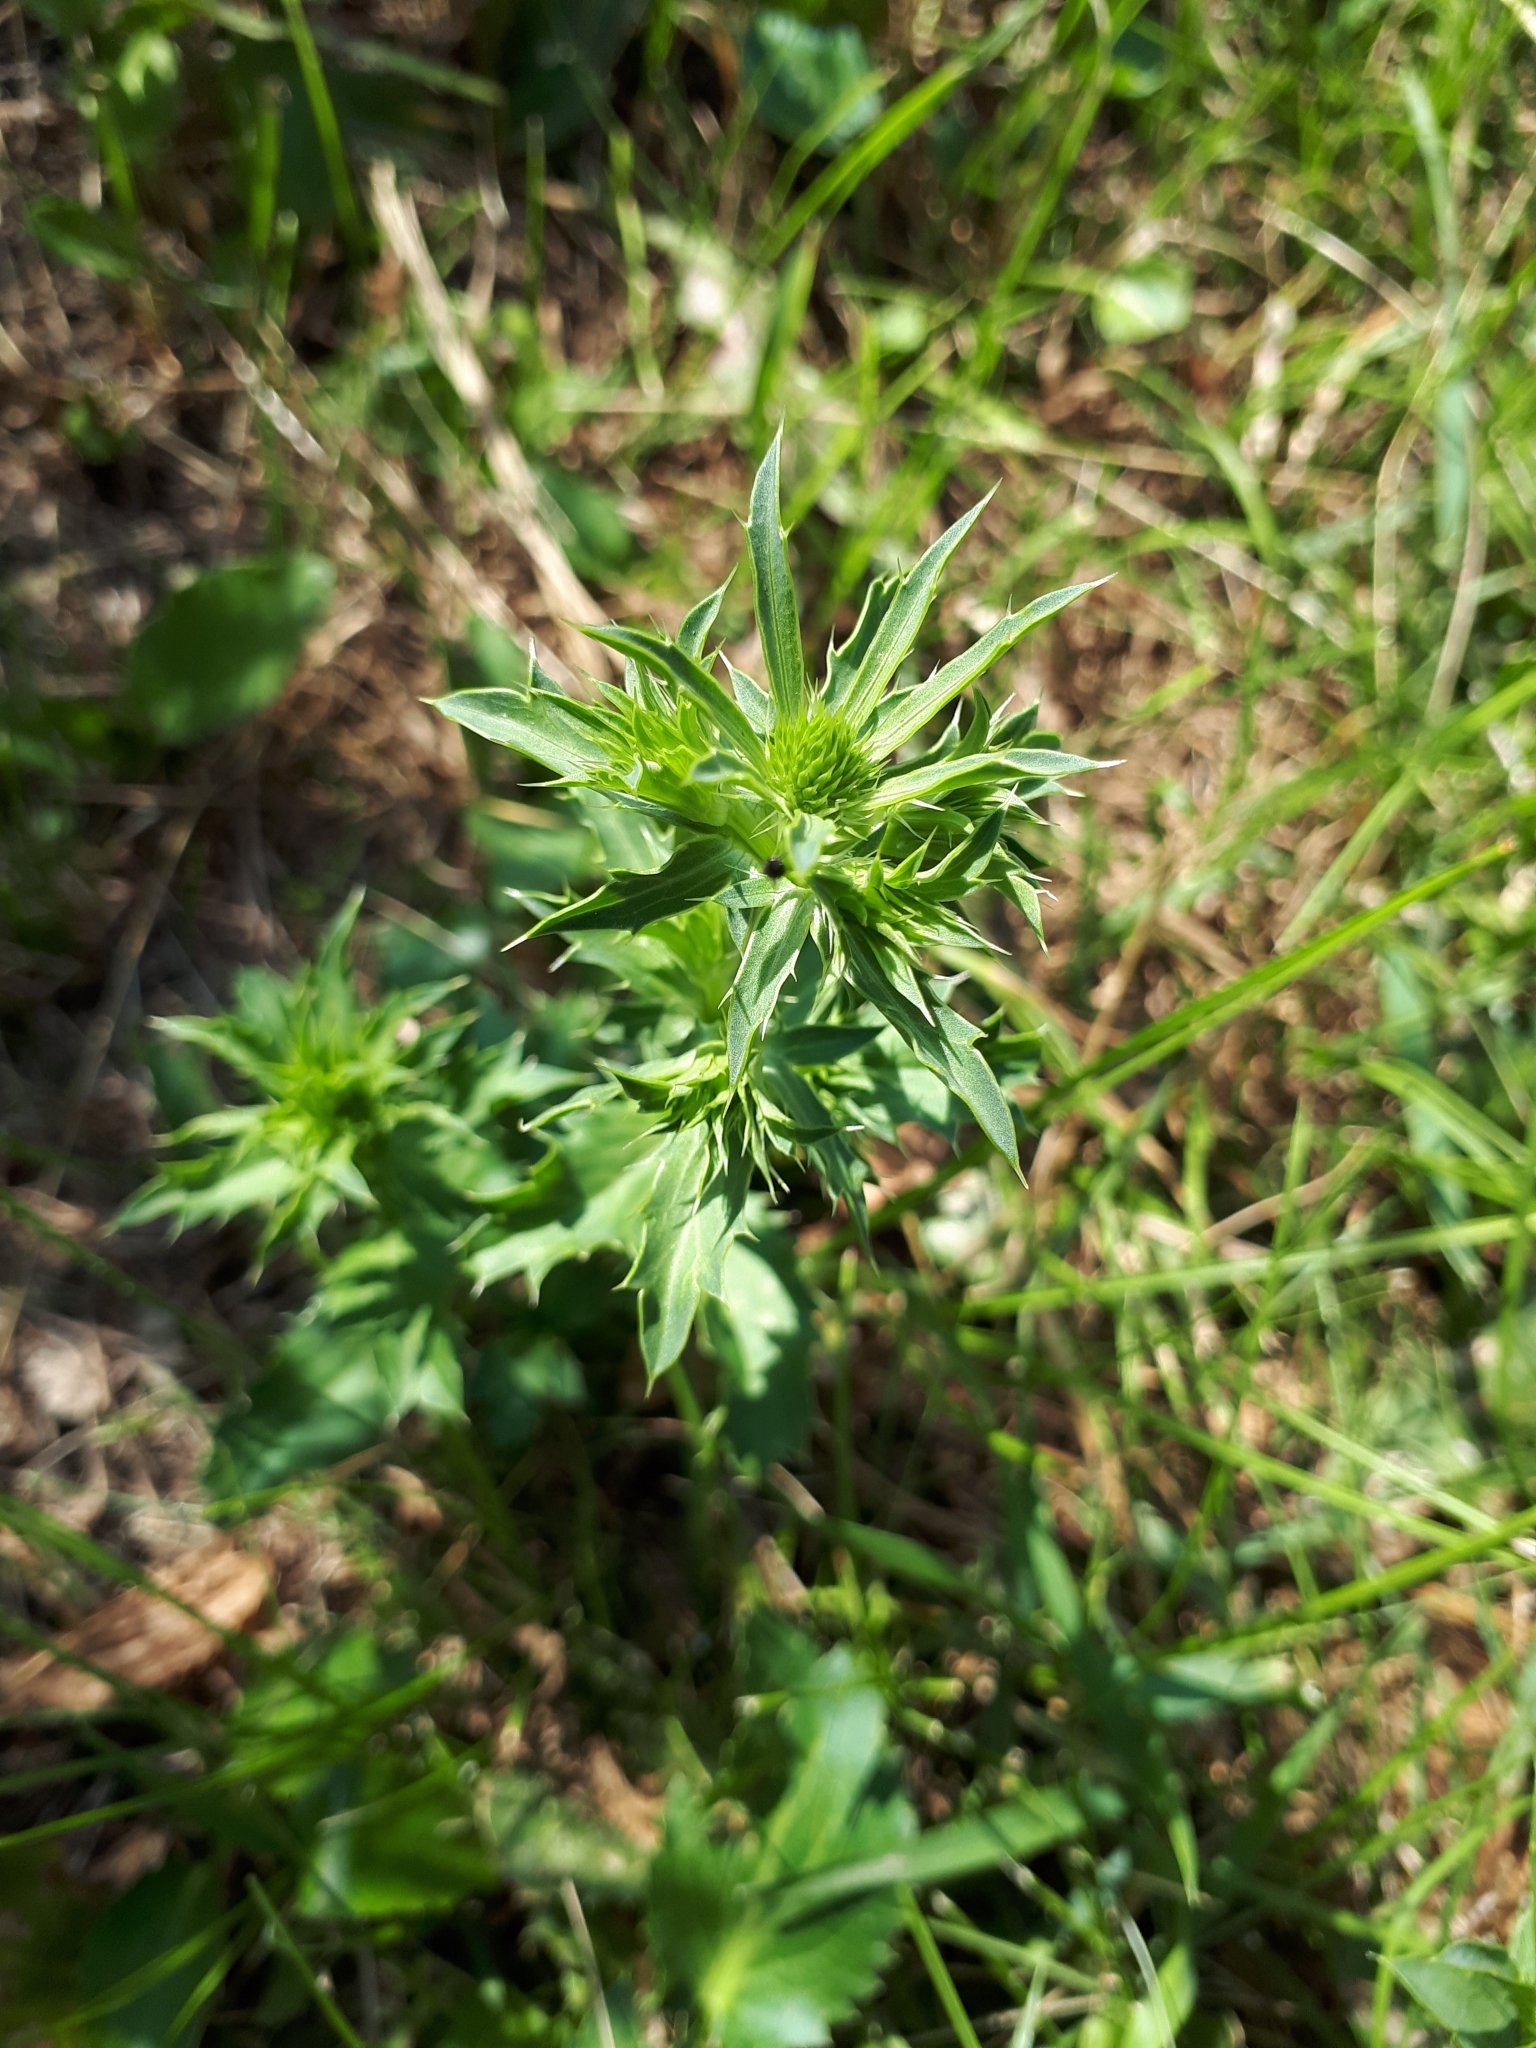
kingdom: Plantae
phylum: Tracheophyta
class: Magnoliopsida
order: Apiales
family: Apiaceae
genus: Eryngium
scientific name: Eryngium planum
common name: Blue eryngo
